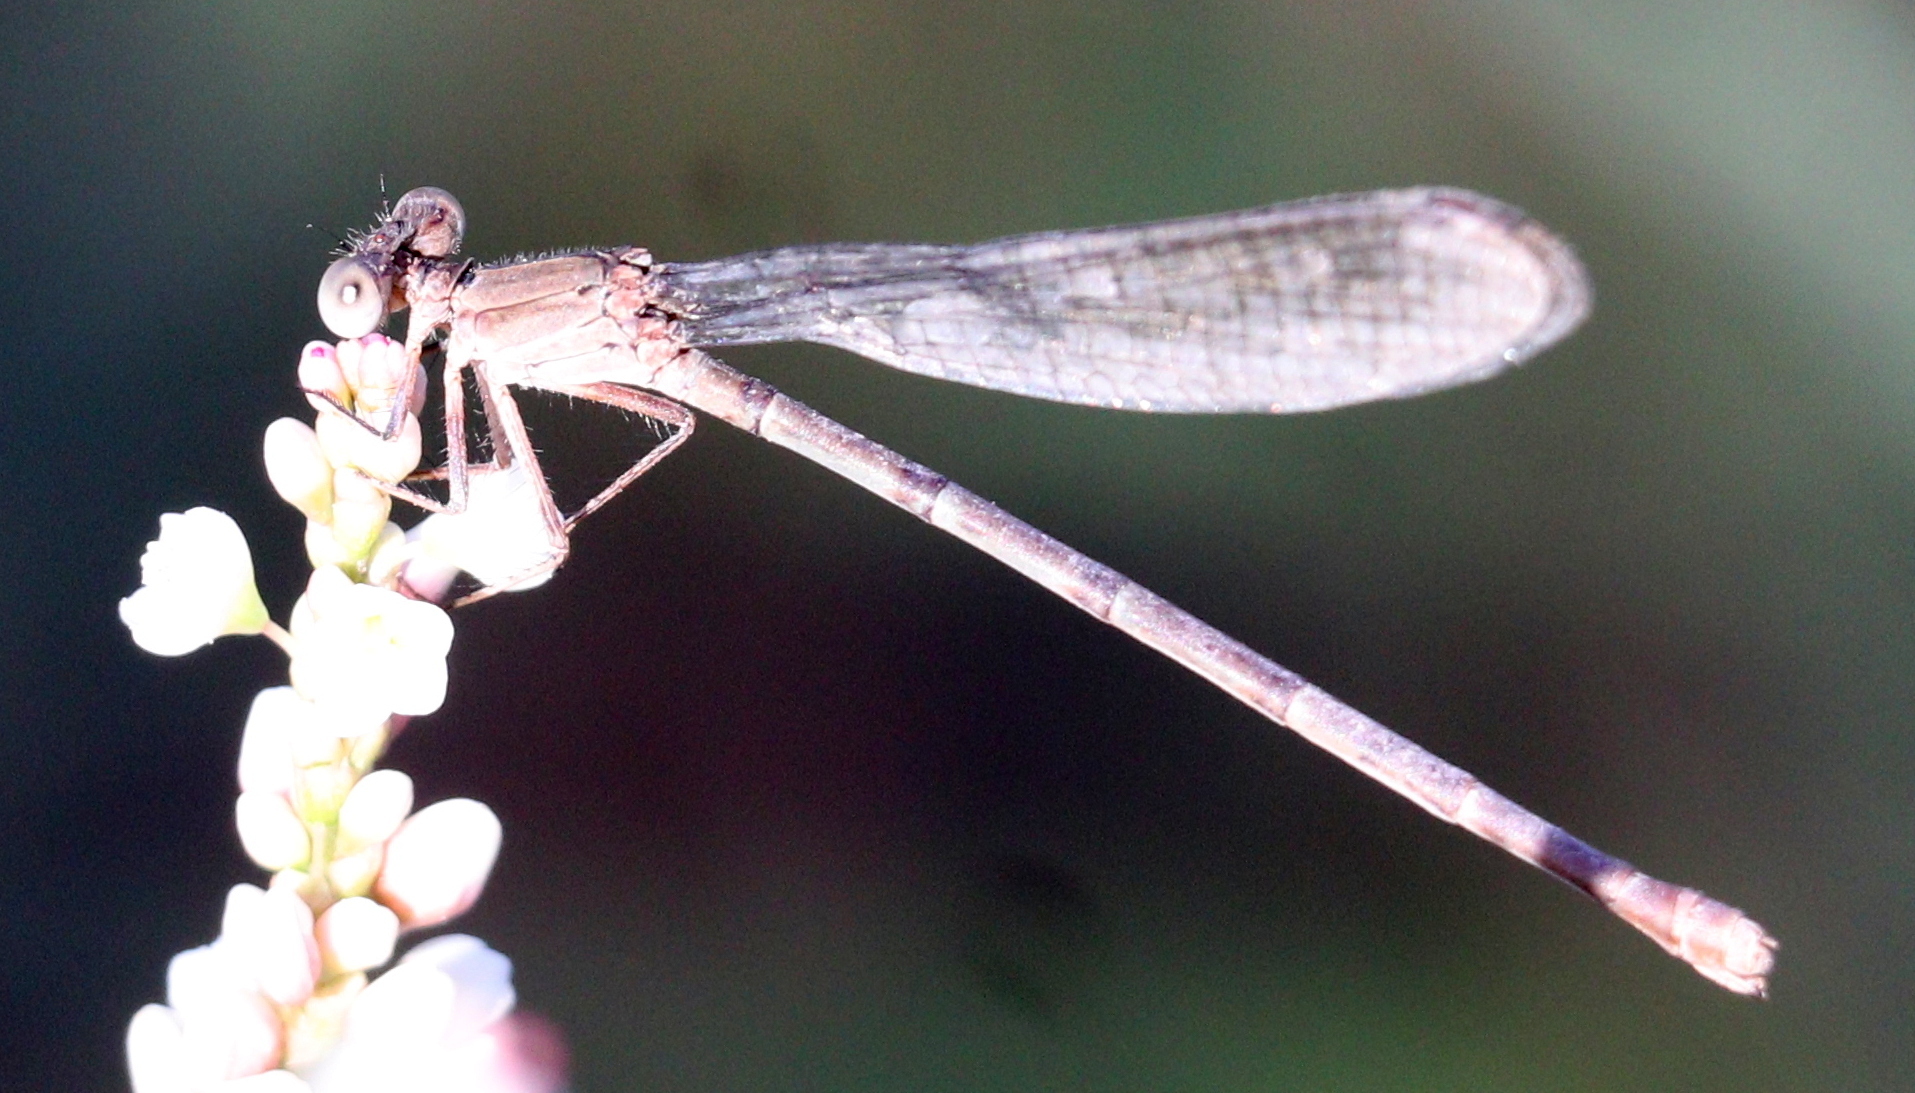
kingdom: Animalia
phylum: Arthropoda
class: Insecta
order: Odonata
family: Coenagrionidae
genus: Argia
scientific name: Argia sedula
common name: Blue-ringed dancer
